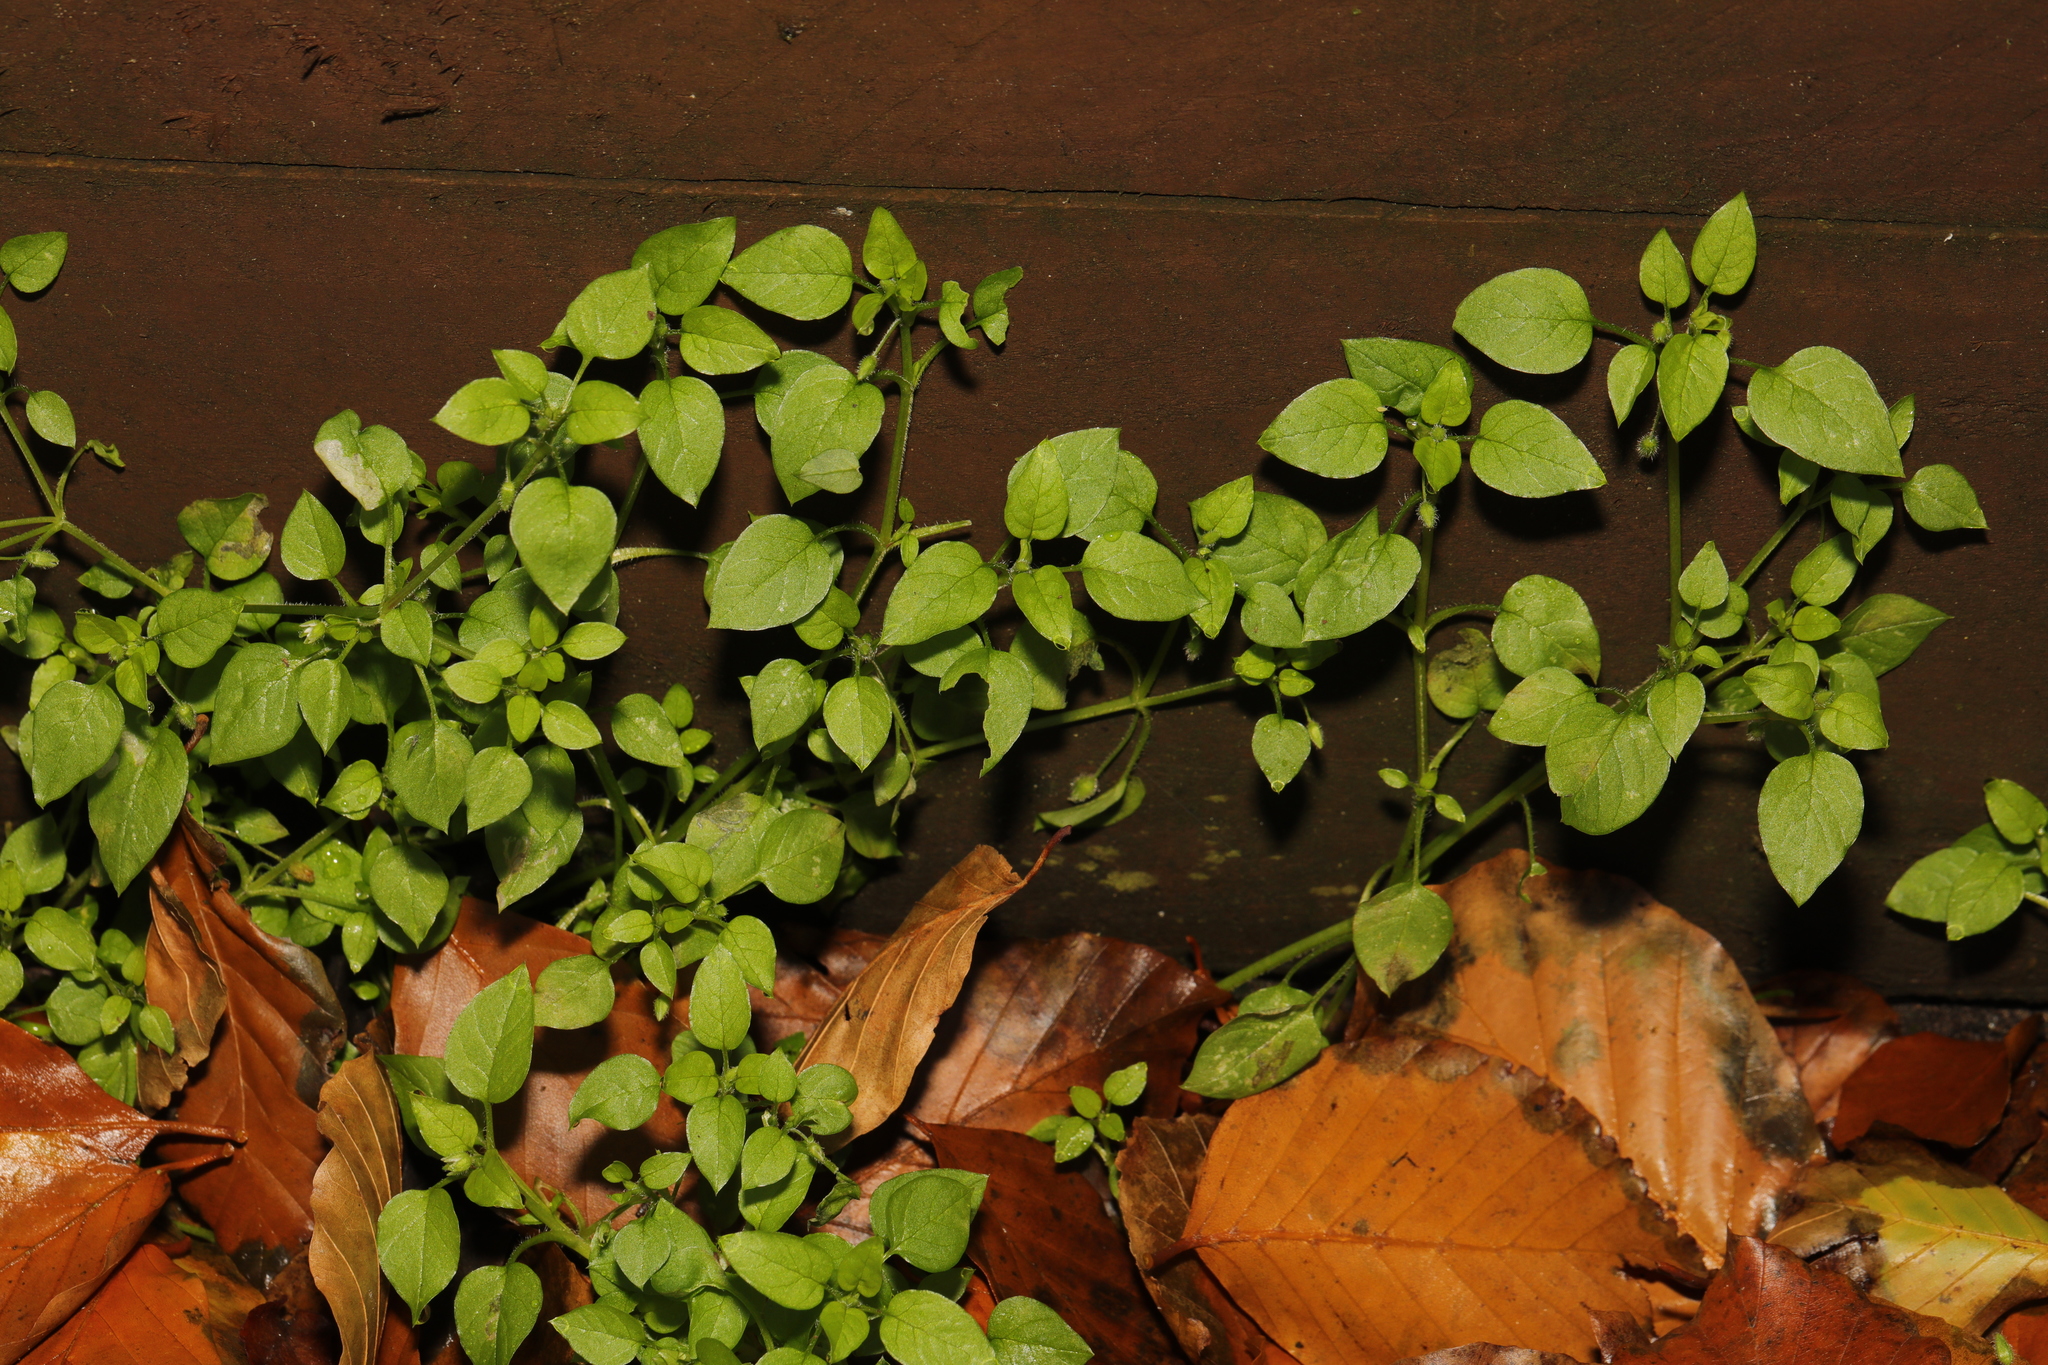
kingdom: Plantae
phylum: Tracheophyta
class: Magnoliopsida
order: Caryophyllales
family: Caryophyllaceae
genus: Stellaria
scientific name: Stellaria media
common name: Common chickweed
